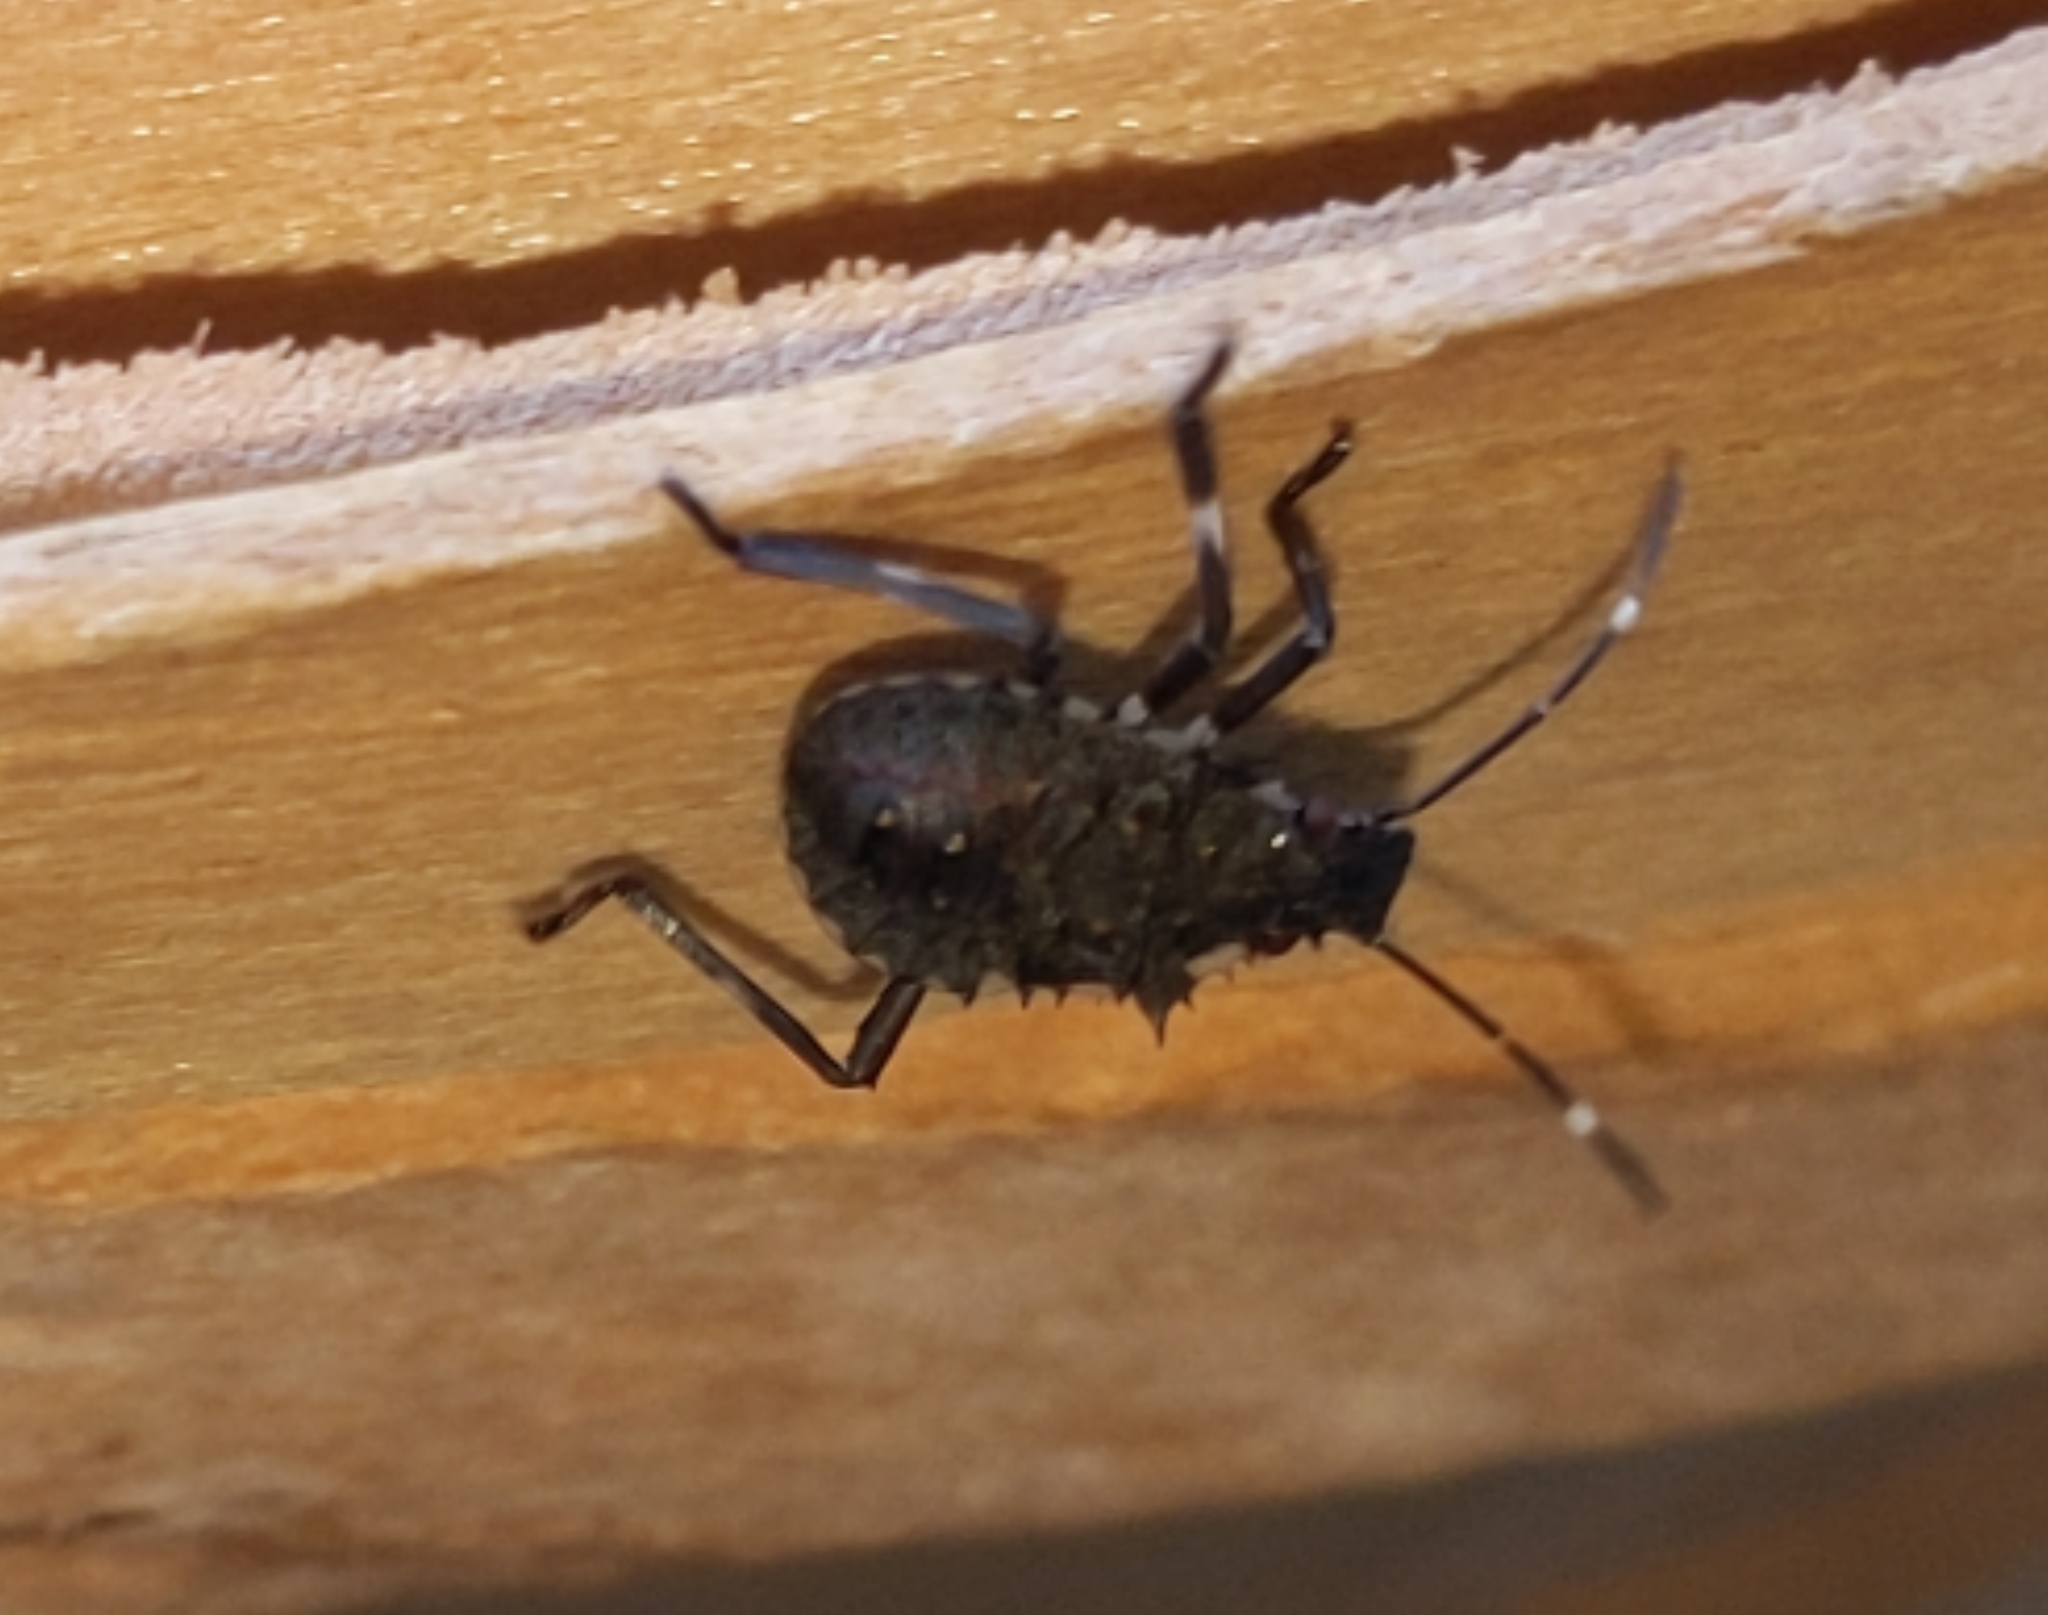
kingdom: Animalia
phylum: Arthropoda
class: Insecta
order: Hemiptera
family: Pentatomidae
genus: Halyomorpha
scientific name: Halyomorpha halys
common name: Brown marmorated stink bug
